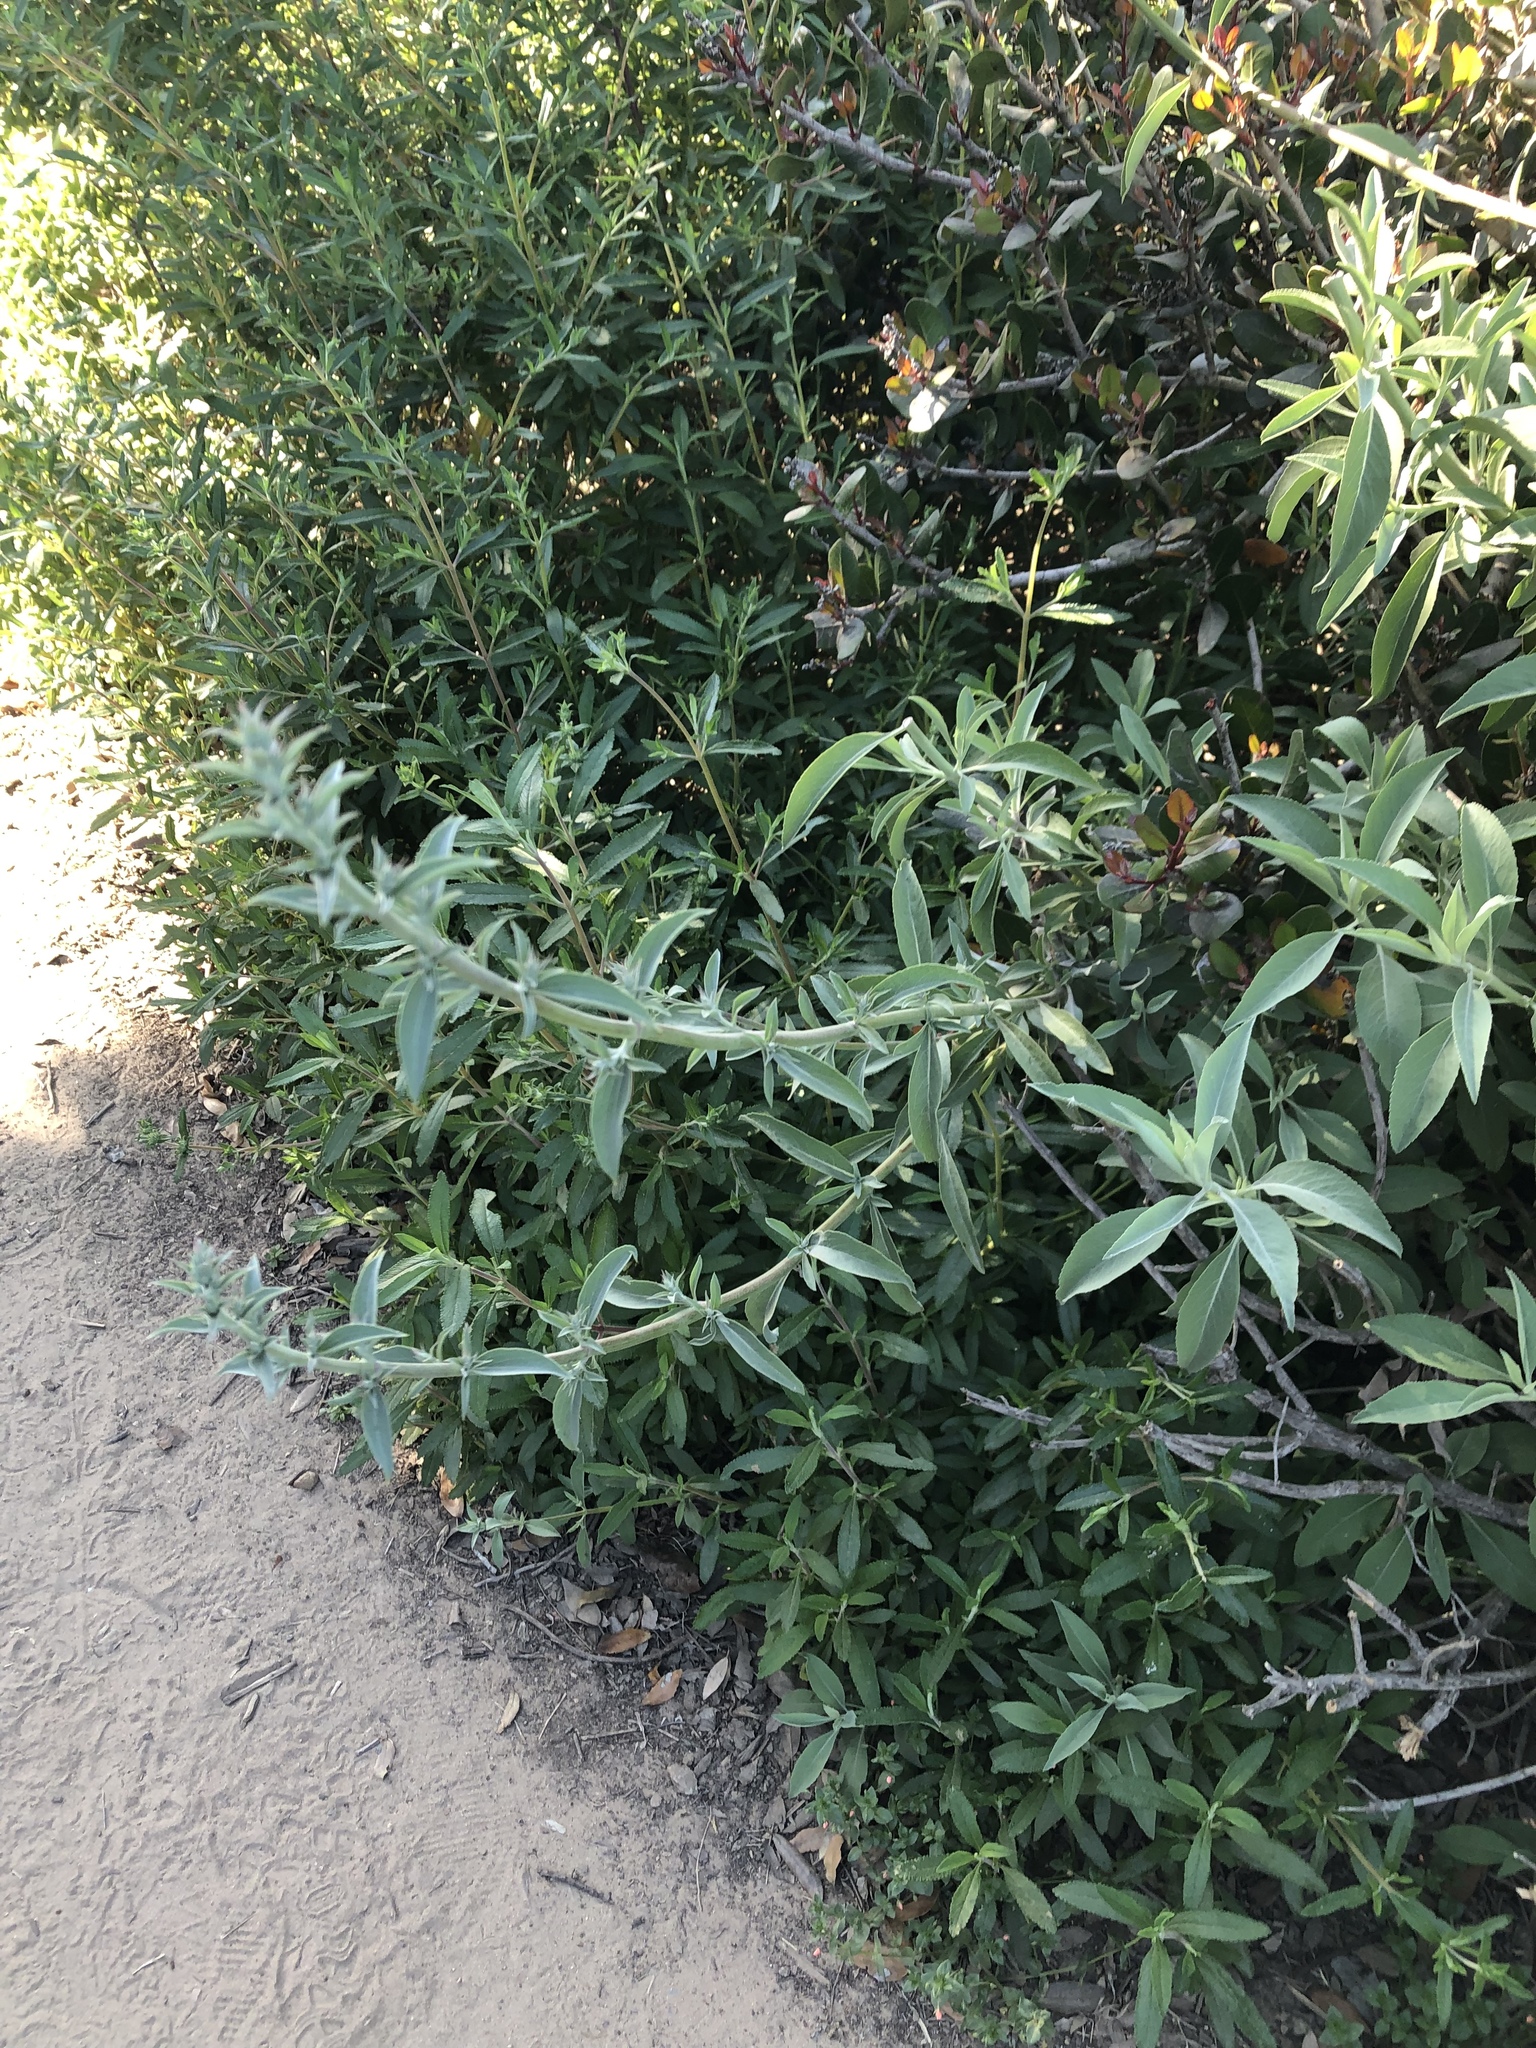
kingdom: Plantae
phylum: Tracheophyta
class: Magnoliopsida
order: Lamiales
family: Lamiaceae
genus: Salvia
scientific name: Salvia apiana
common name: White sage
